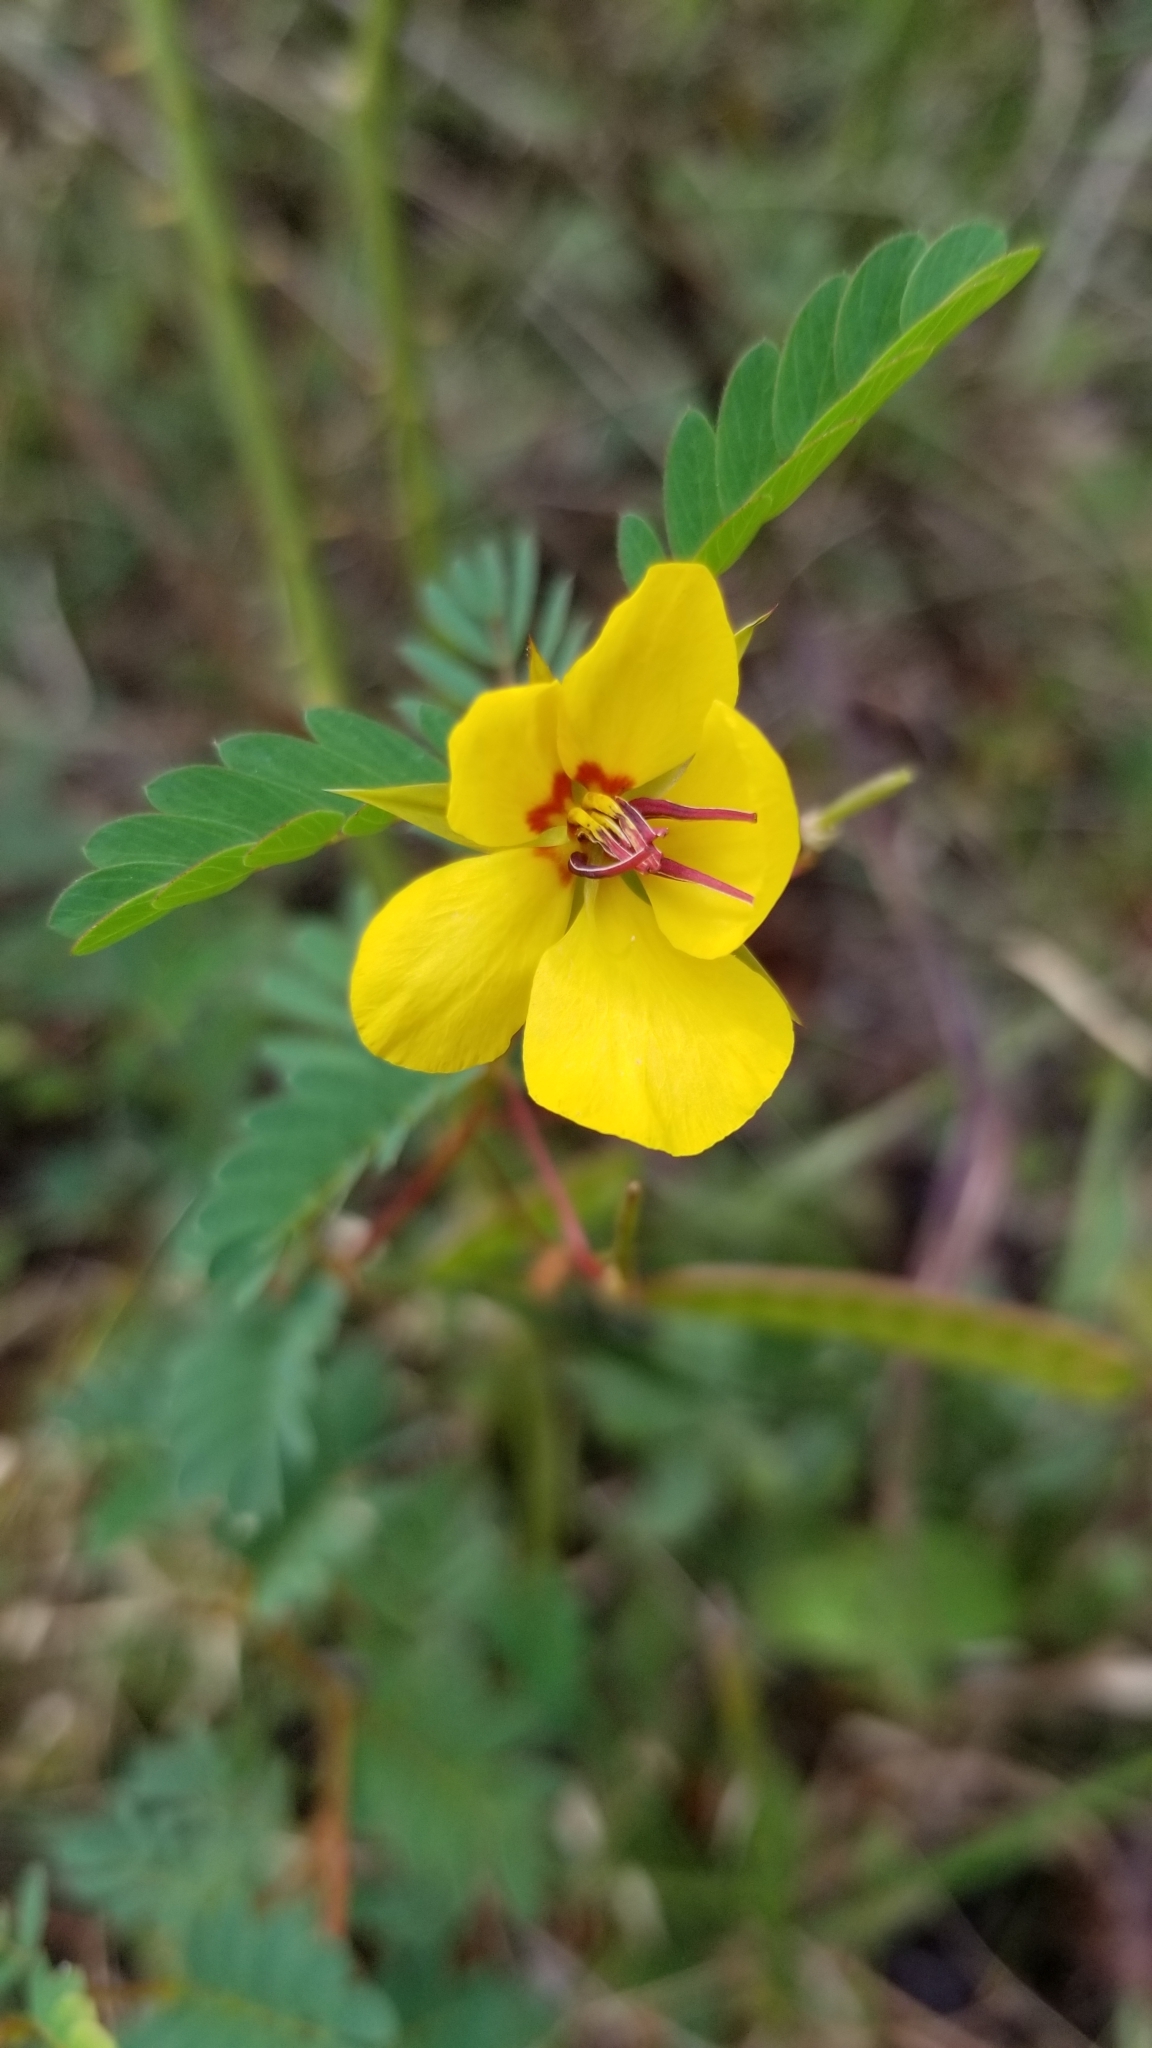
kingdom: Plantae
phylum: Tracheophyta
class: Magnoliopsida
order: Fabales
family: Fabaceae
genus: Chamaecrista
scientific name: Chamaecrista fasciculata
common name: Golden cassia
